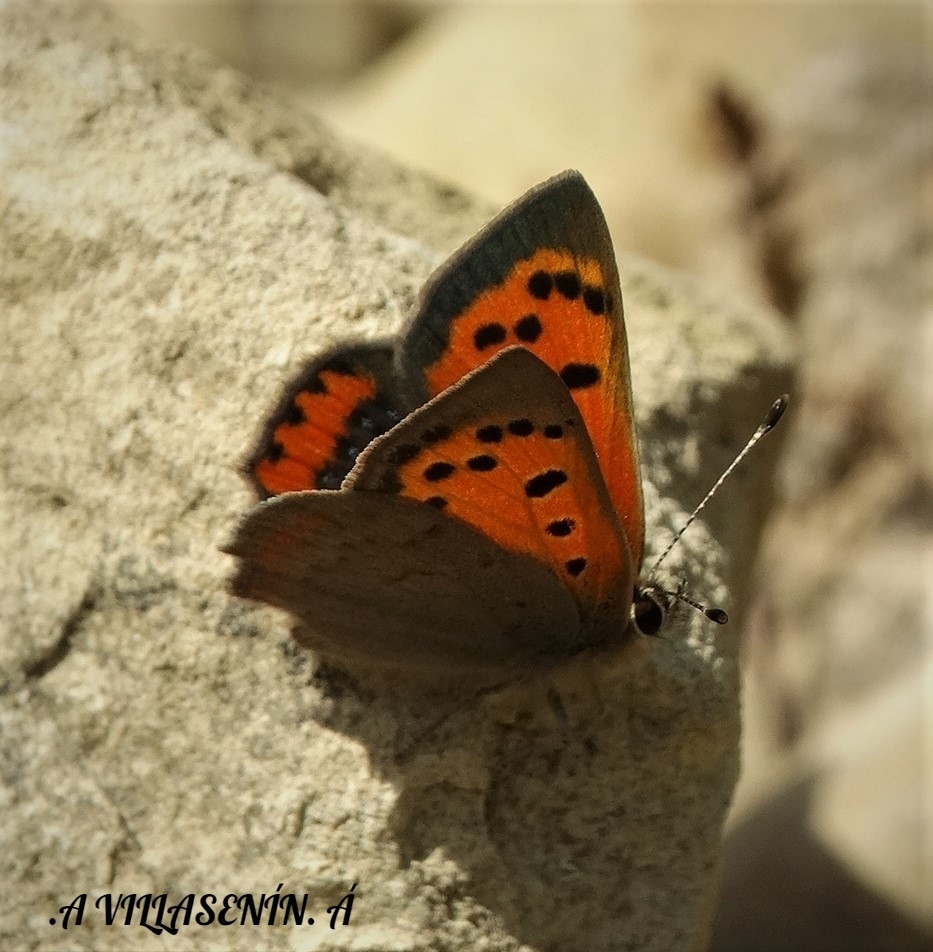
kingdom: Animalia
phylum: Arthropoda
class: Insecta
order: Lepidoptera
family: Lycaenidae
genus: Lycaena
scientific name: Lycaena phlaeas
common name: Small copper
